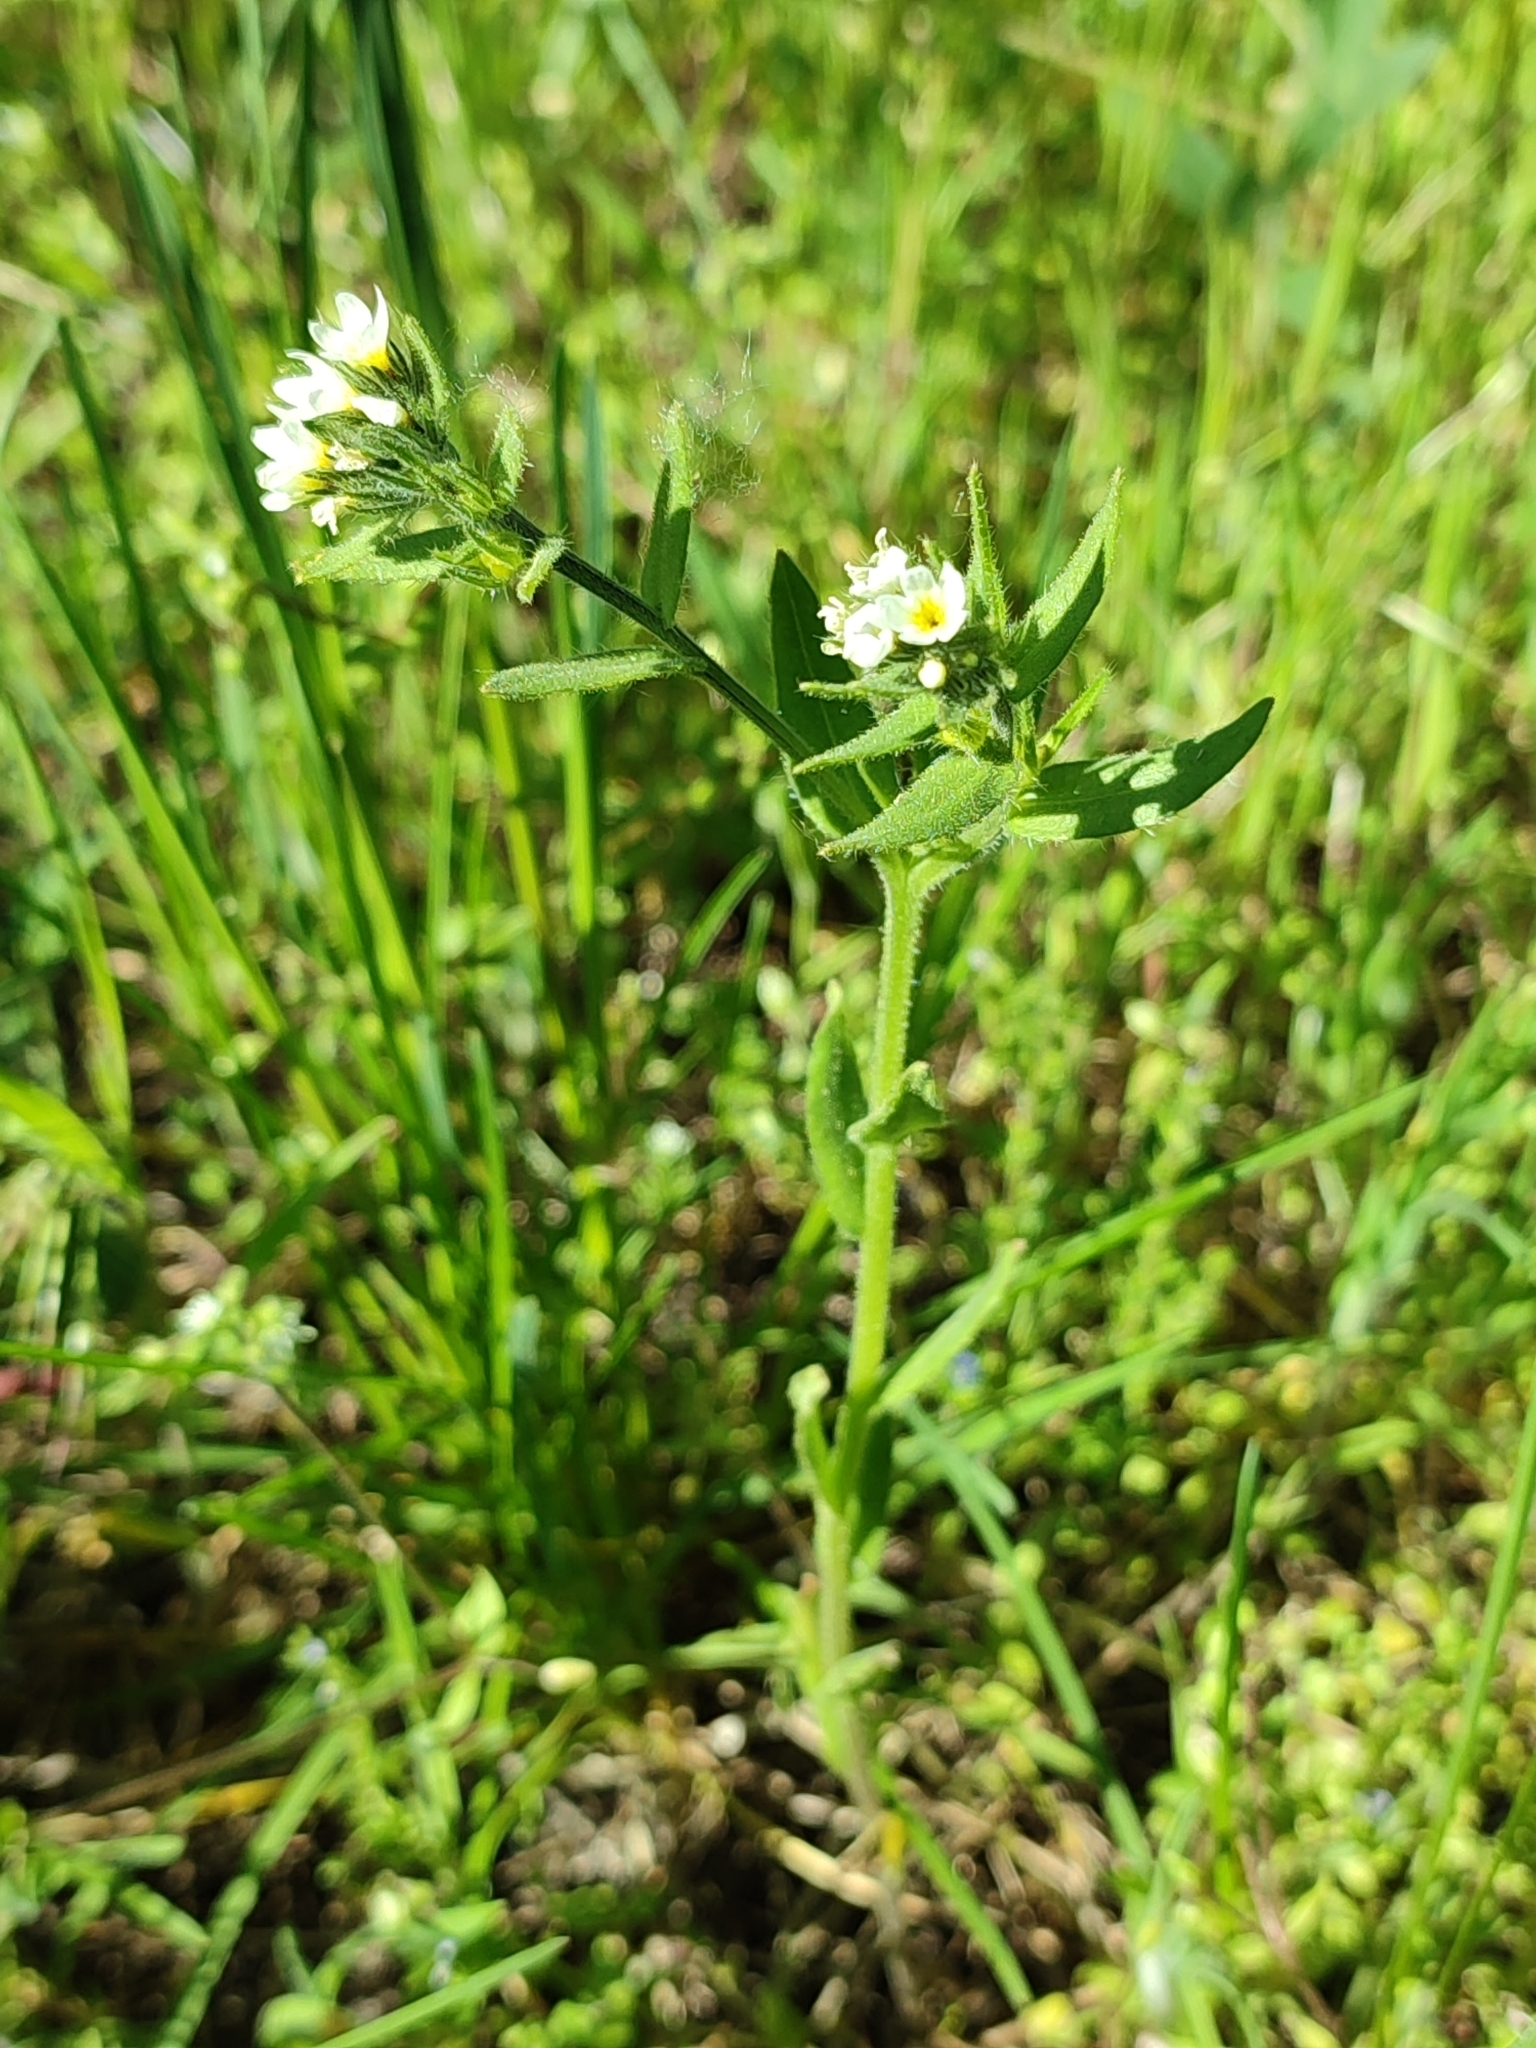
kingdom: Plantae
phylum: Tracheophyta
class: Magnoliopsida
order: Boraginales
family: Boraginaceae
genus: Buglossoides
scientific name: Buglossoides arvensis
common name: Corn gromwell
